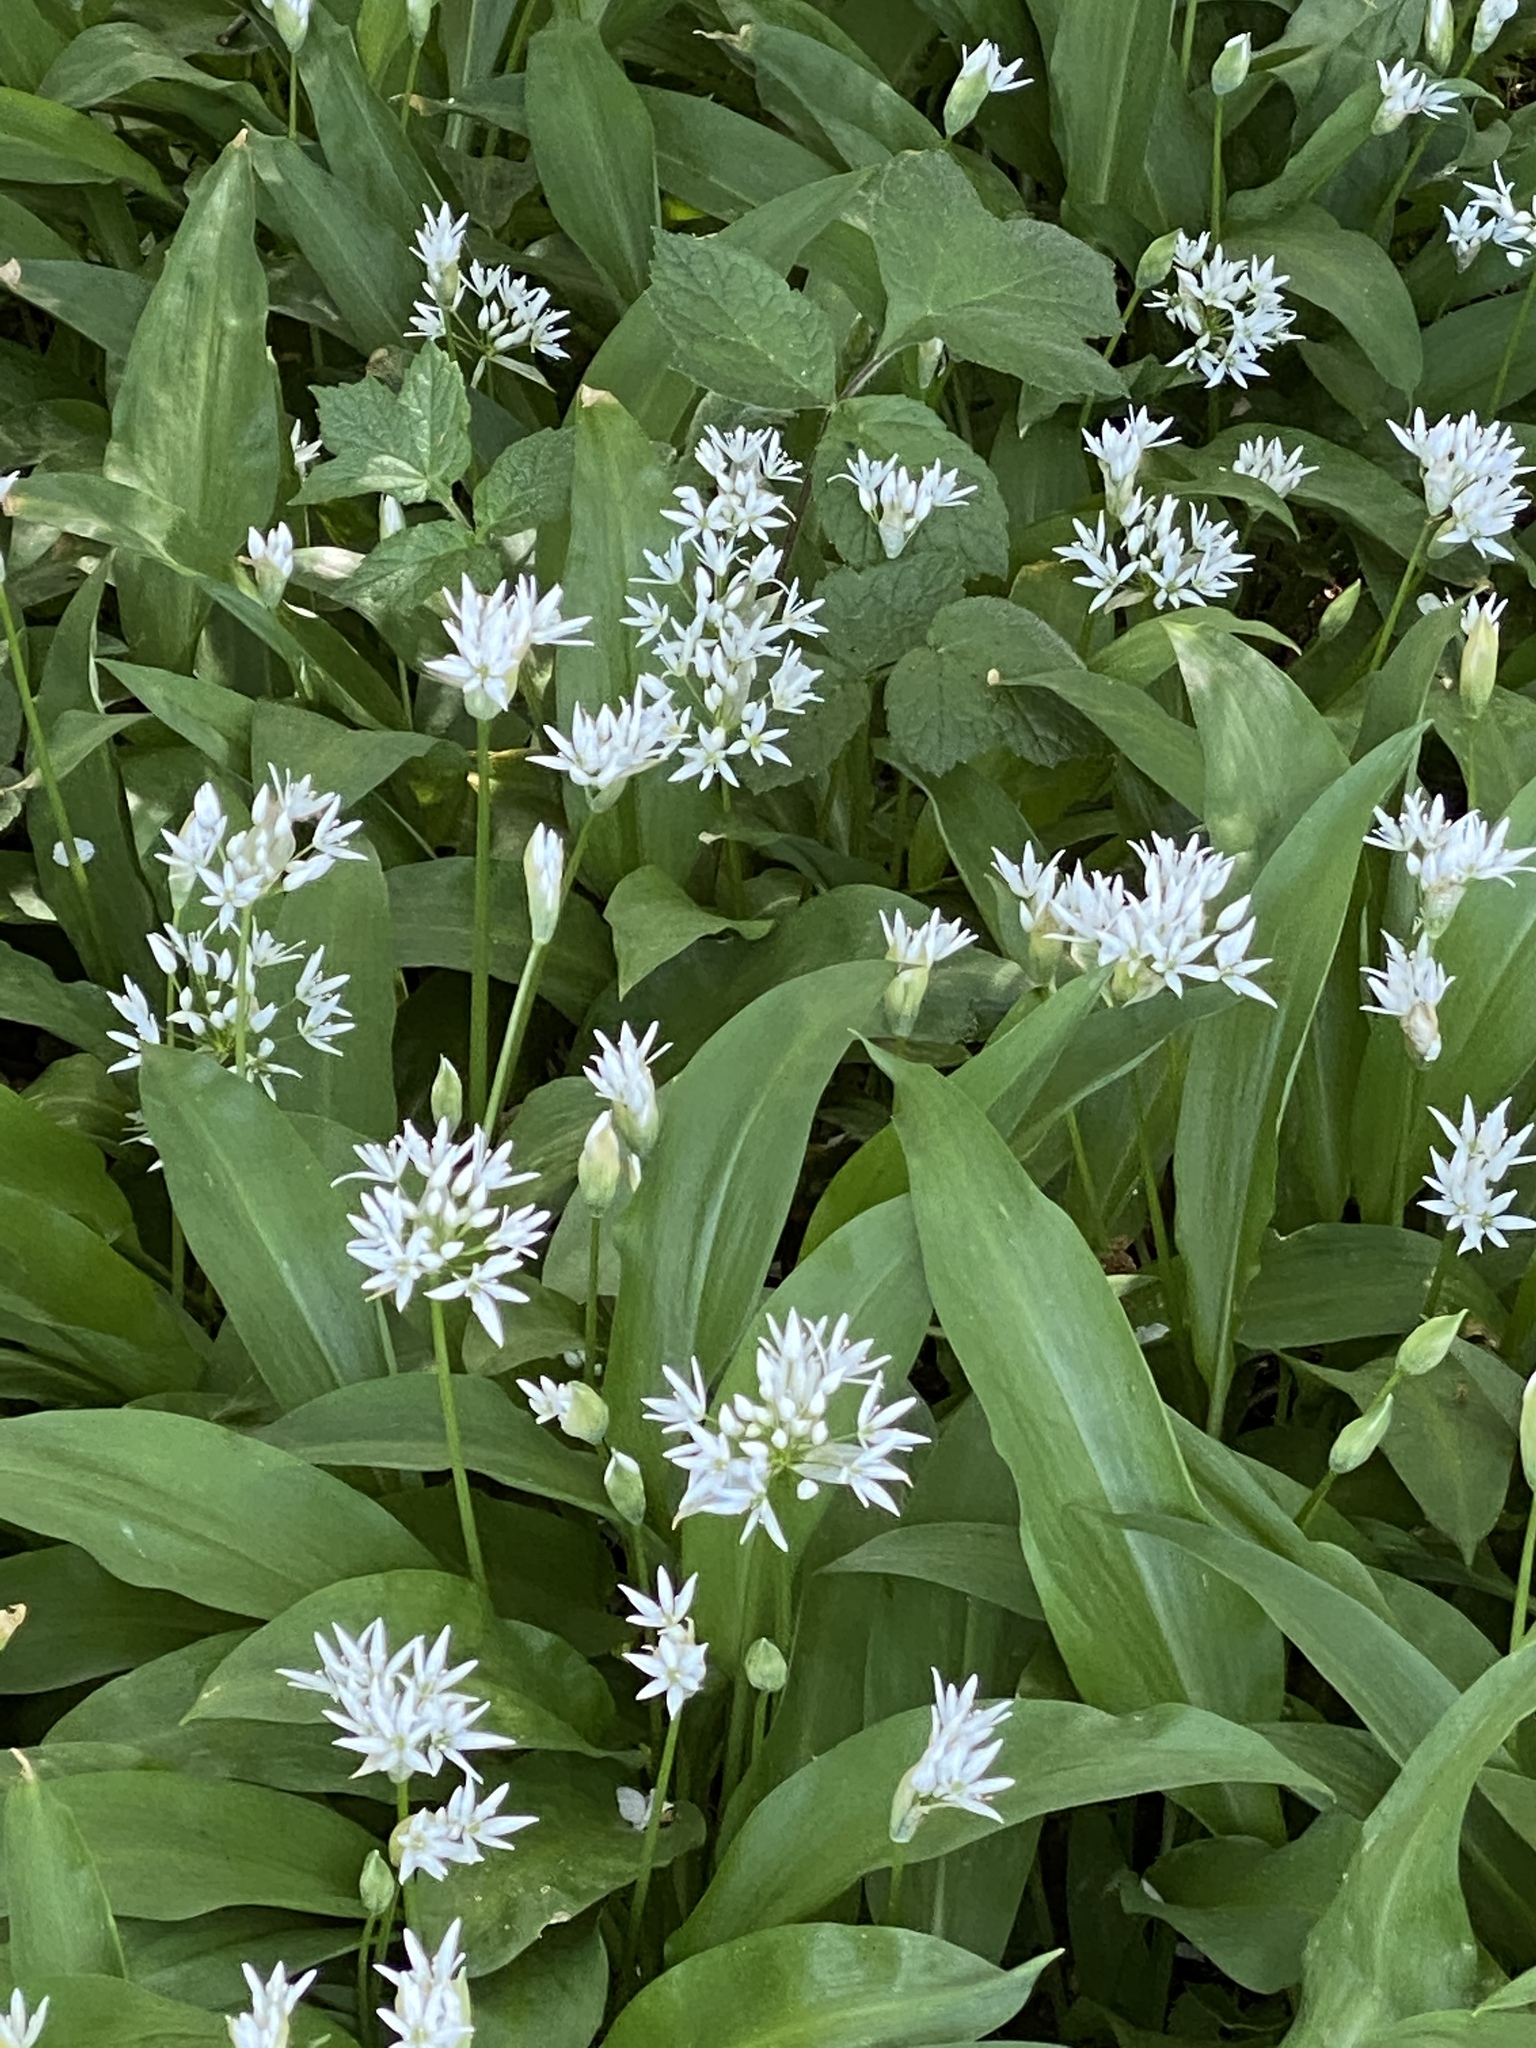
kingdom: Plantae
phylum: Tracheophyta
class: Liliopsida
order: Asparagales
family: Amaryllidaceae
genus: Allium
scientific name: Allium ursinum
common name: Ramsons
